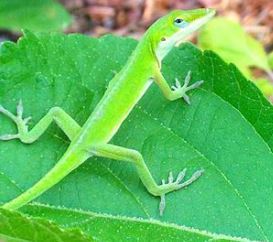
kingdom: Animalia
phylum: Chordata
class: Squamata
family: Dactyloidae
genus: Anolis
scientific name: Anolis carolinensis
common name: Green anole
